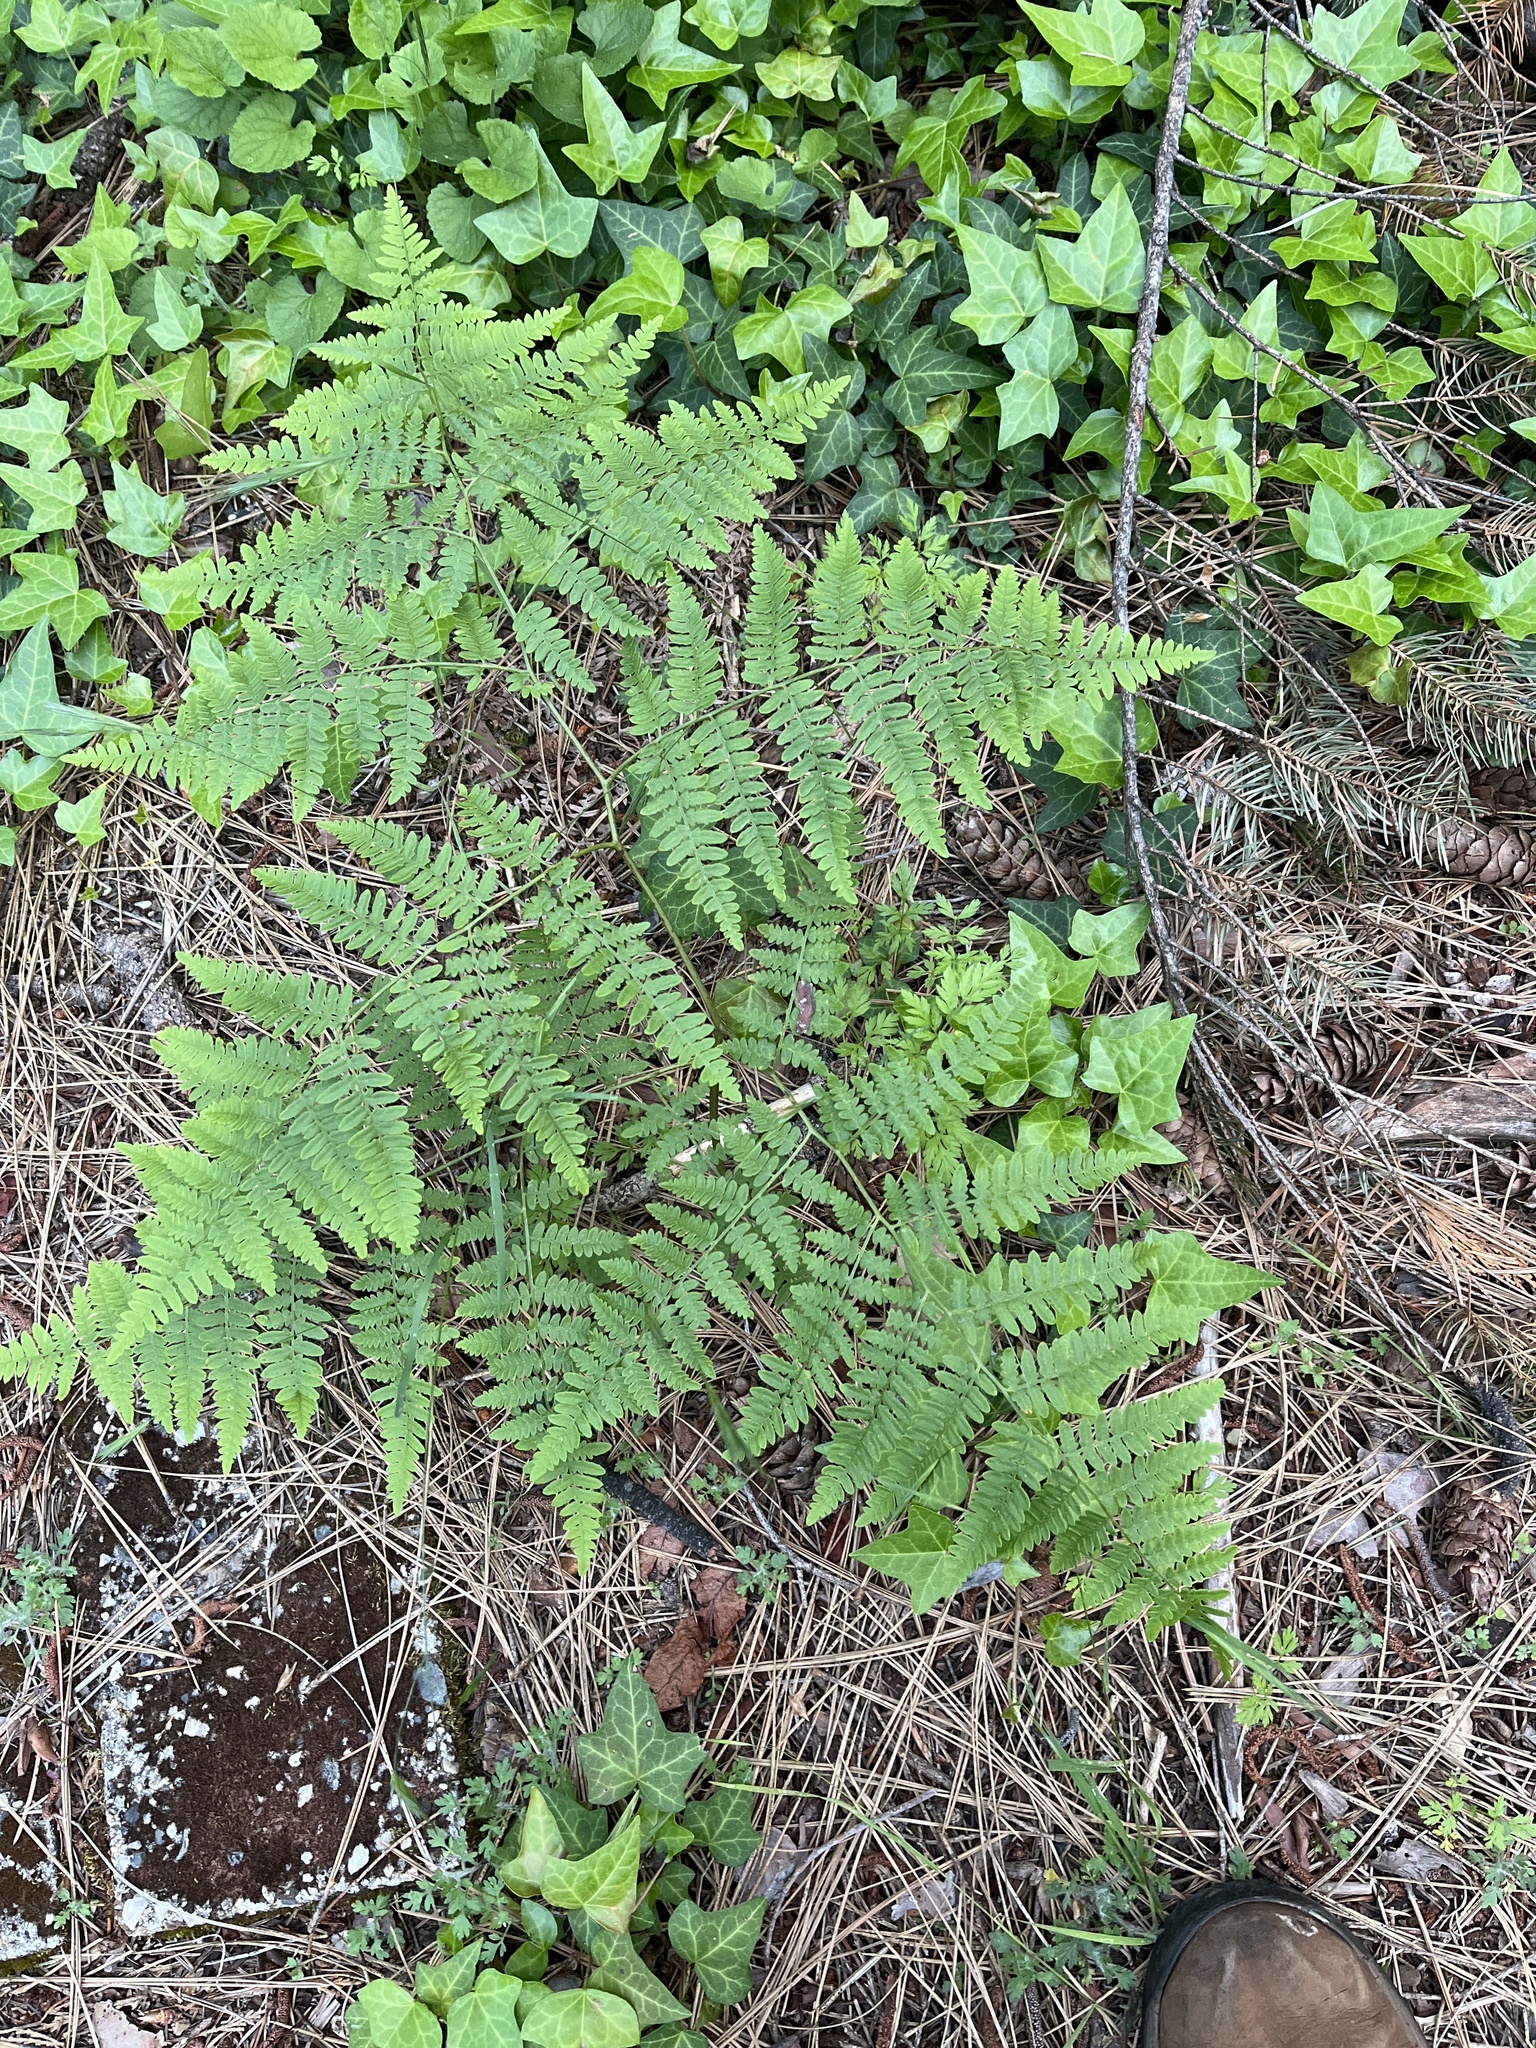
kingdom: Plantae
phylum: Tracheophyta
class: Polypodiopsida
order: Polypodiales
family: Dennstaedtiaceae
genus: Pteridium
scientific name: Pteridium aquilinum
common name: Bracken
